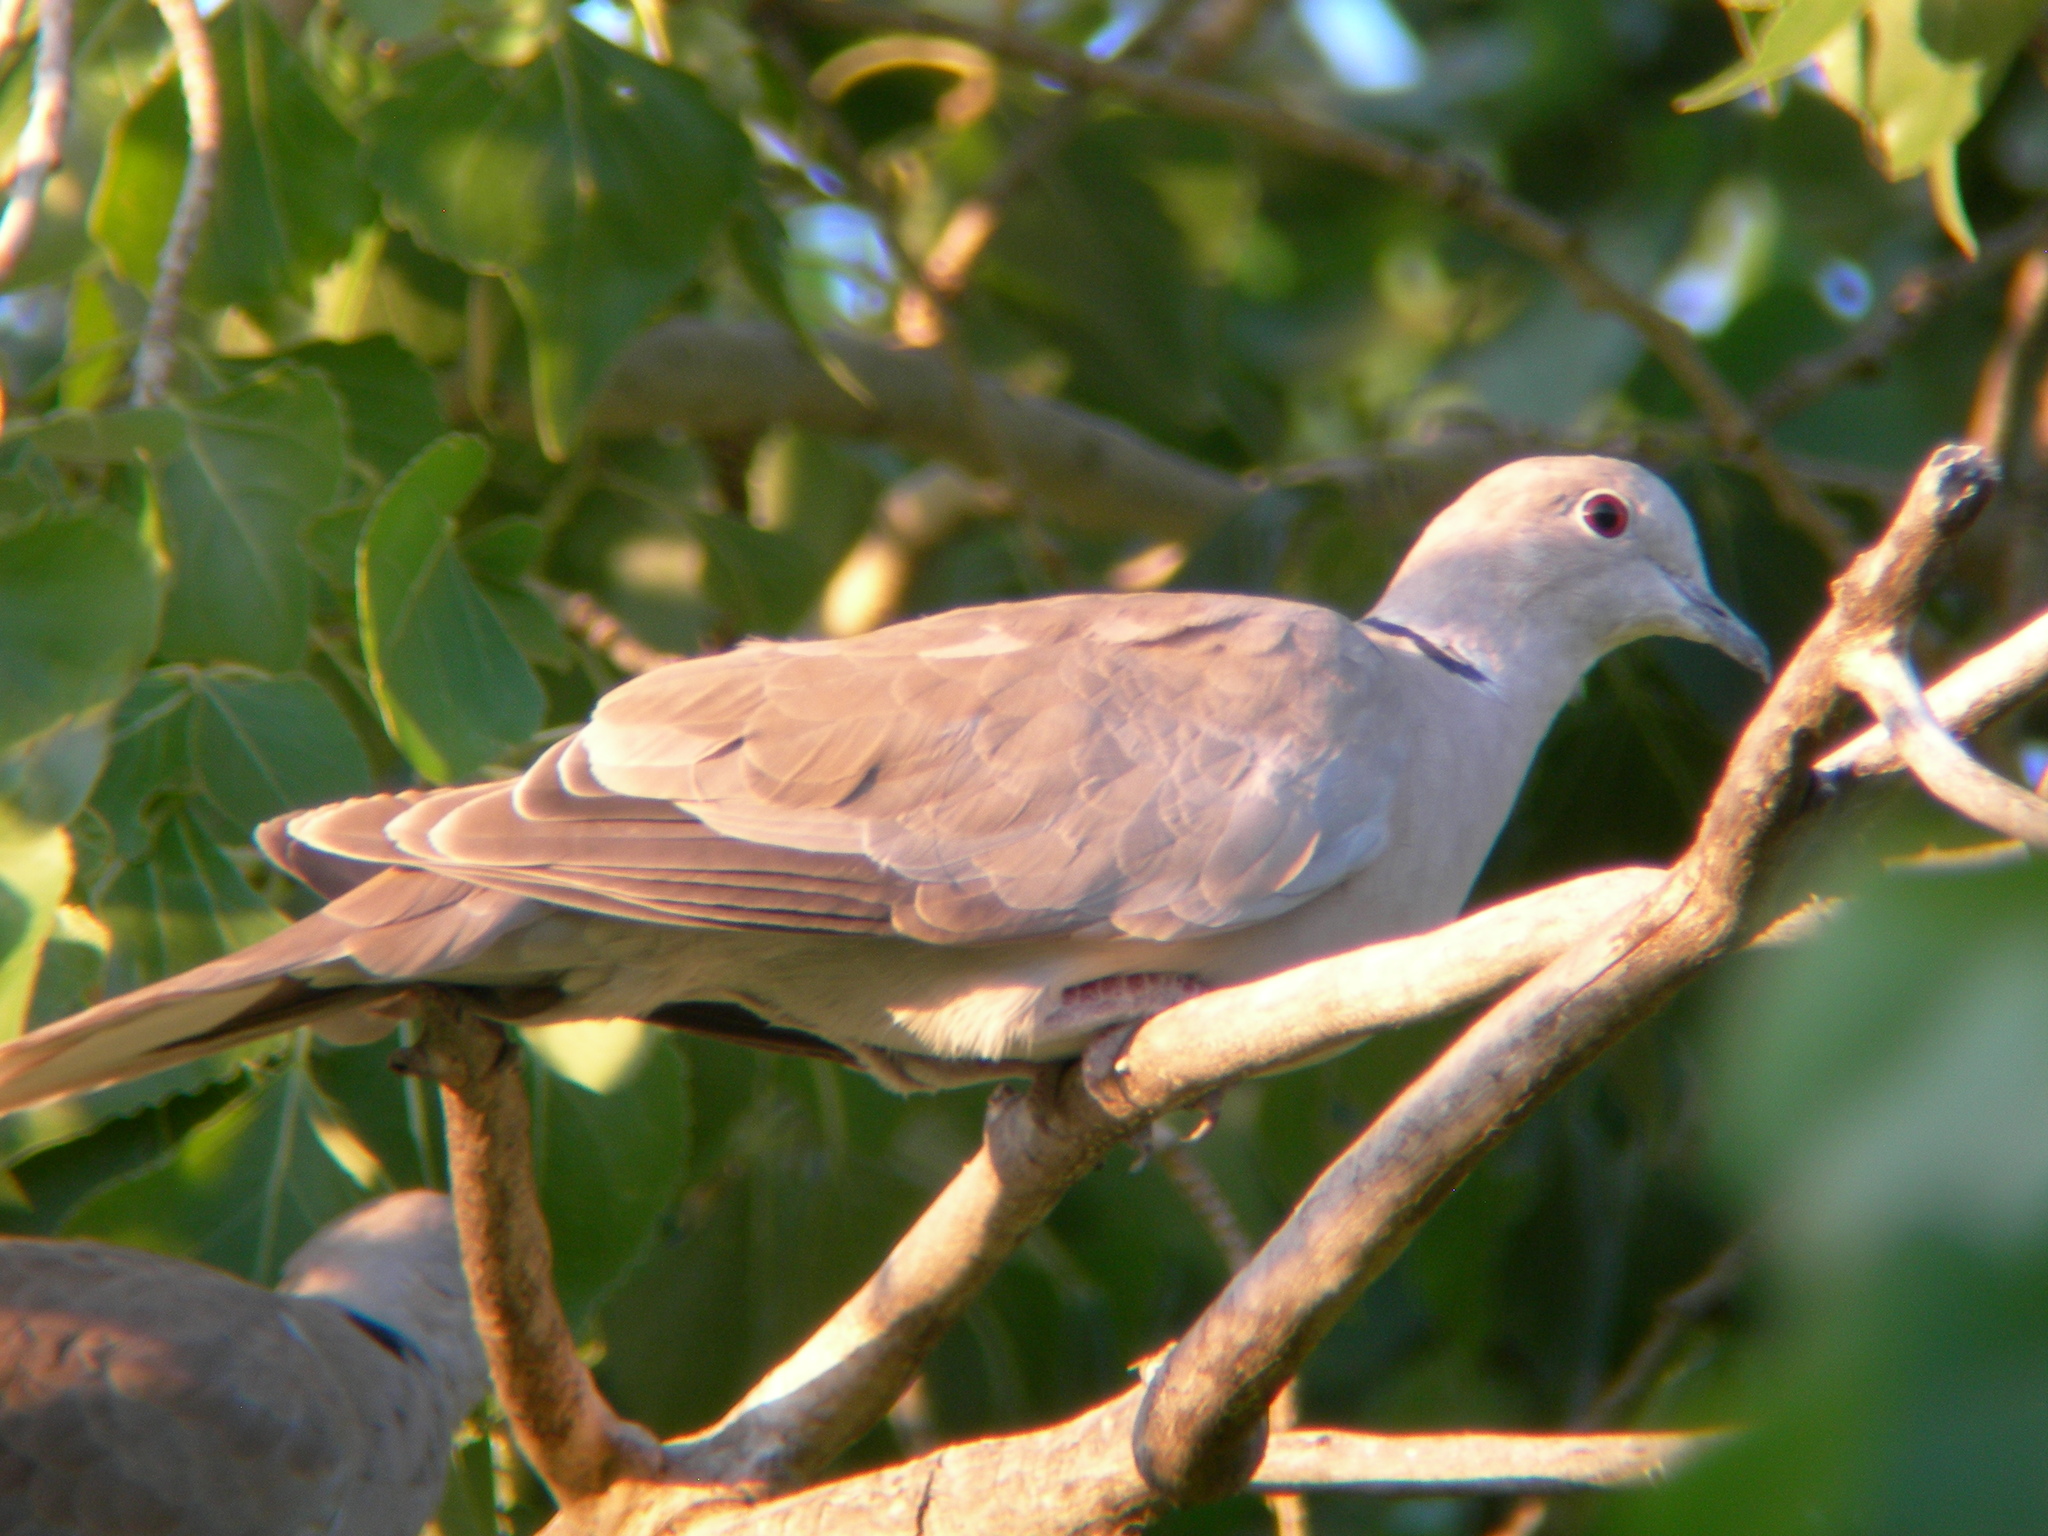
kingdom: Animalia
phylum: Chordata
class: Aves
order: Columbiformes
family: Columbidae
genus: Streptopelia
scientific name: Streptopelia decaocto
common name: Eurasian collared dove
